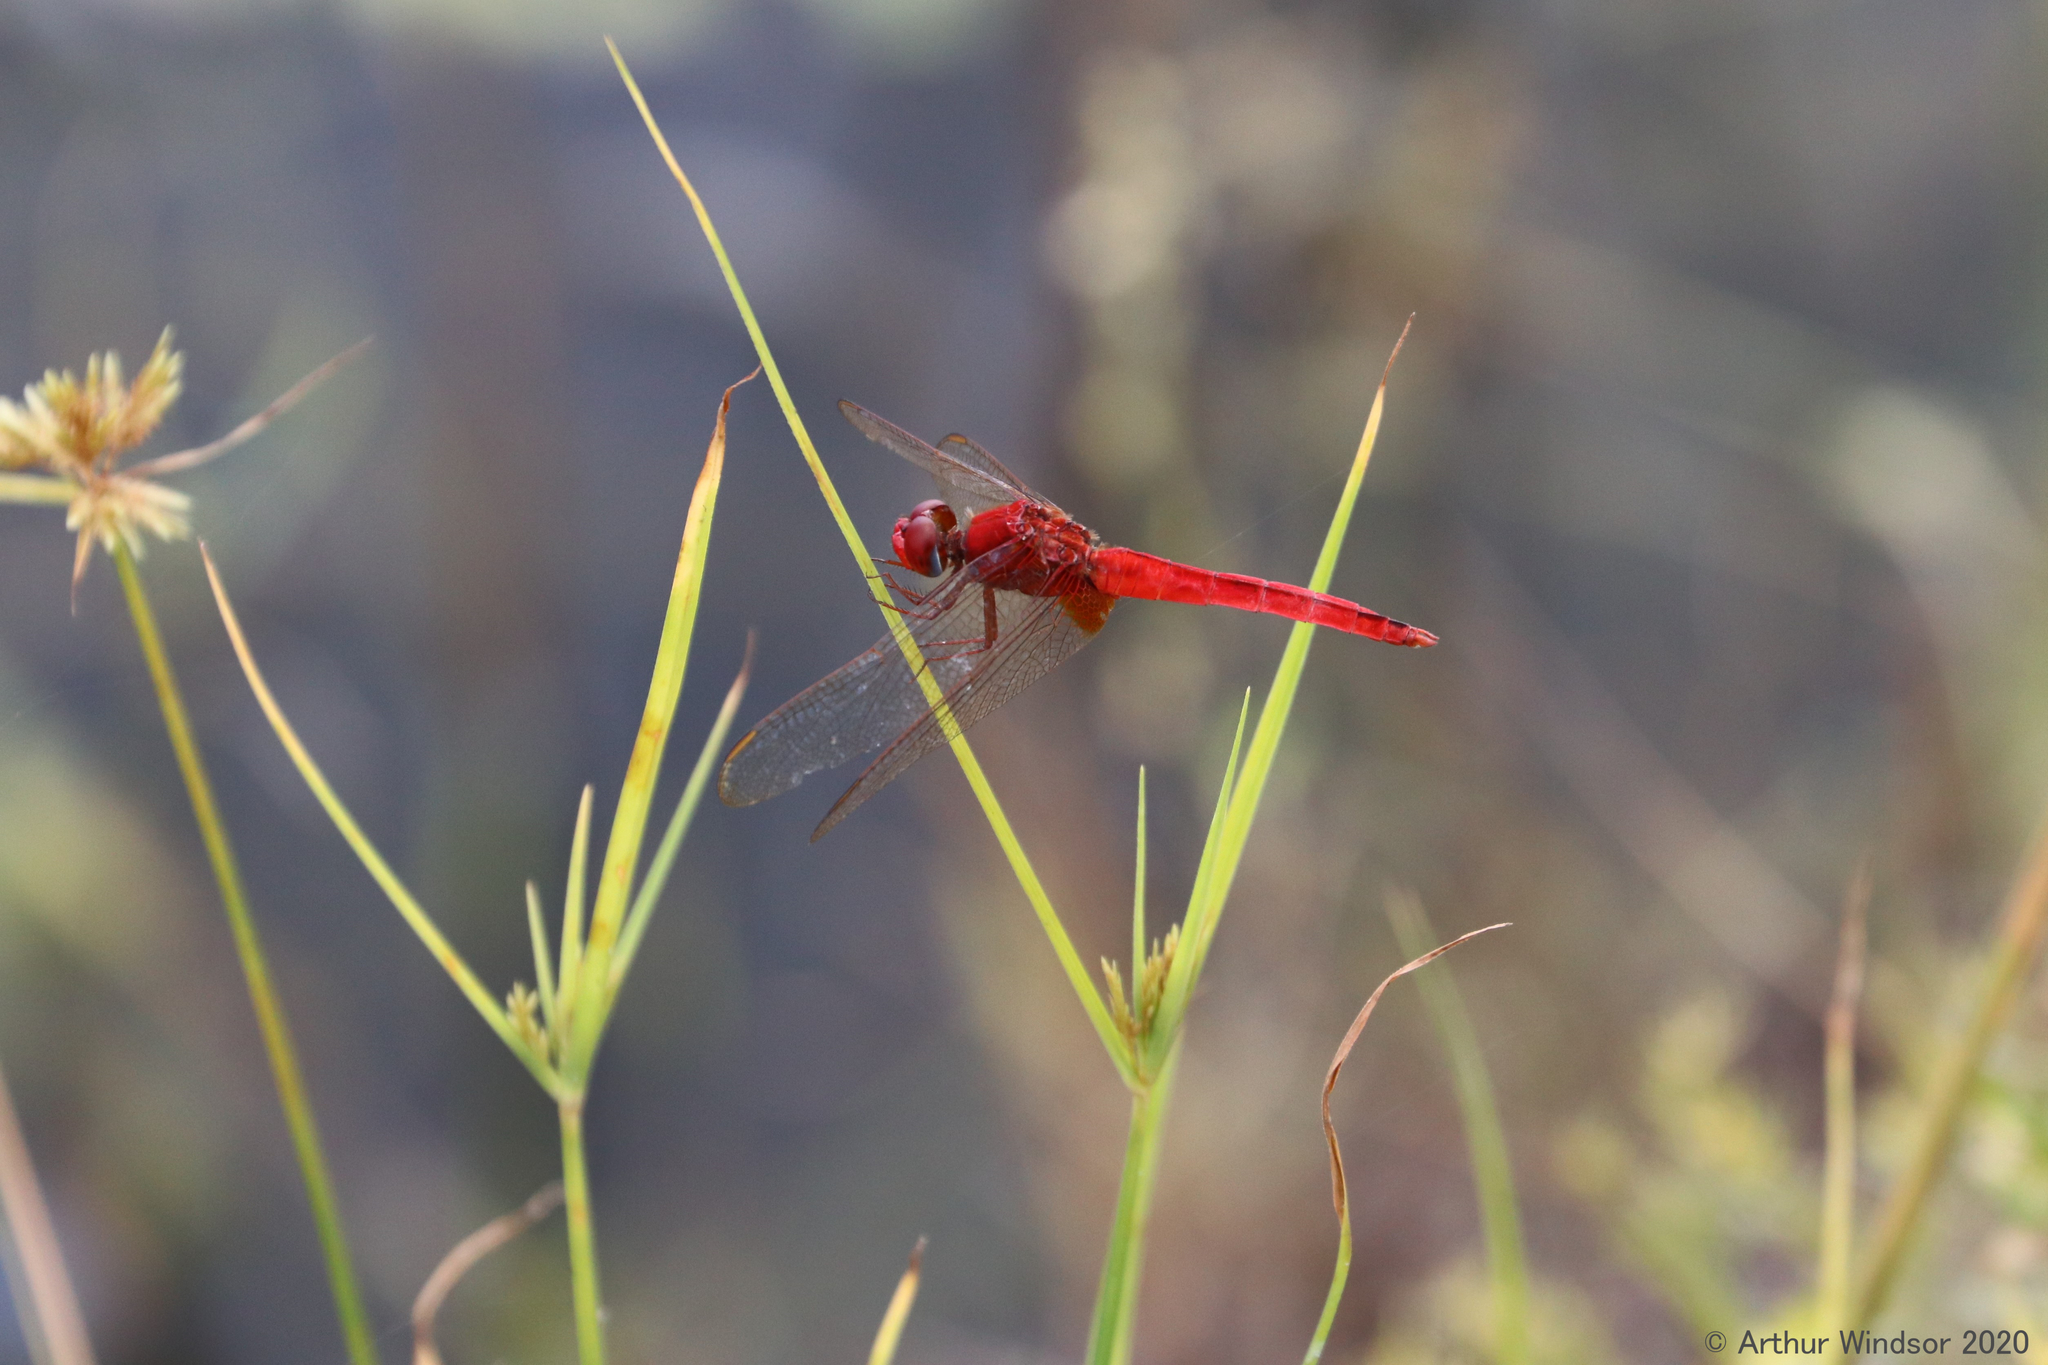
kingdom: Animalia
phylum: Arthropoda
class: Insecta
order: Odonata
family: Libellulidae
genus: Crocothemis
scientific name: Crocothemis servilia
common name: Scarlet skimmer
